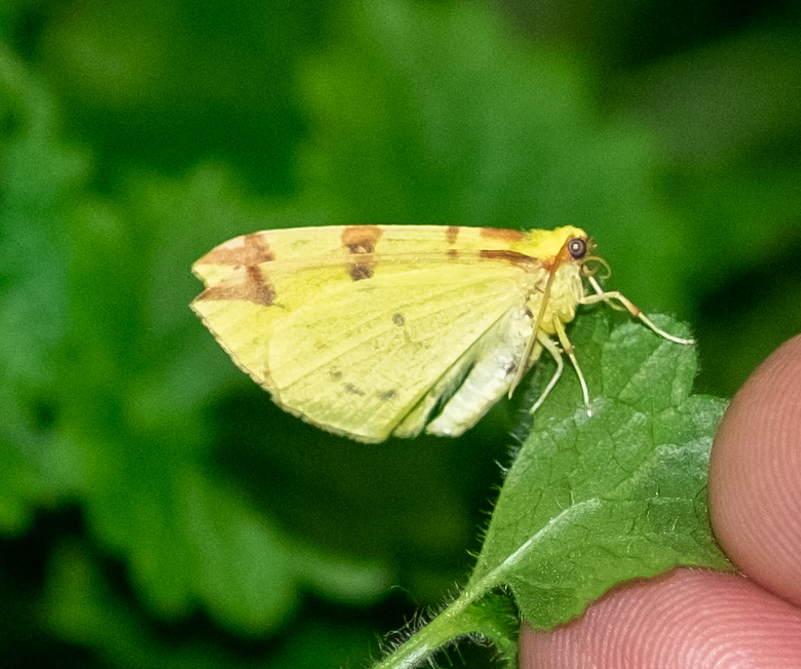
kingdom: Animalia
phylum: Arthropoda
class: Insecta
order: Lepidoptera
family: Geometridae
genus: Opisthograptis
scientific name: Opisthograptis luteolata
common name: Brimstone moth
